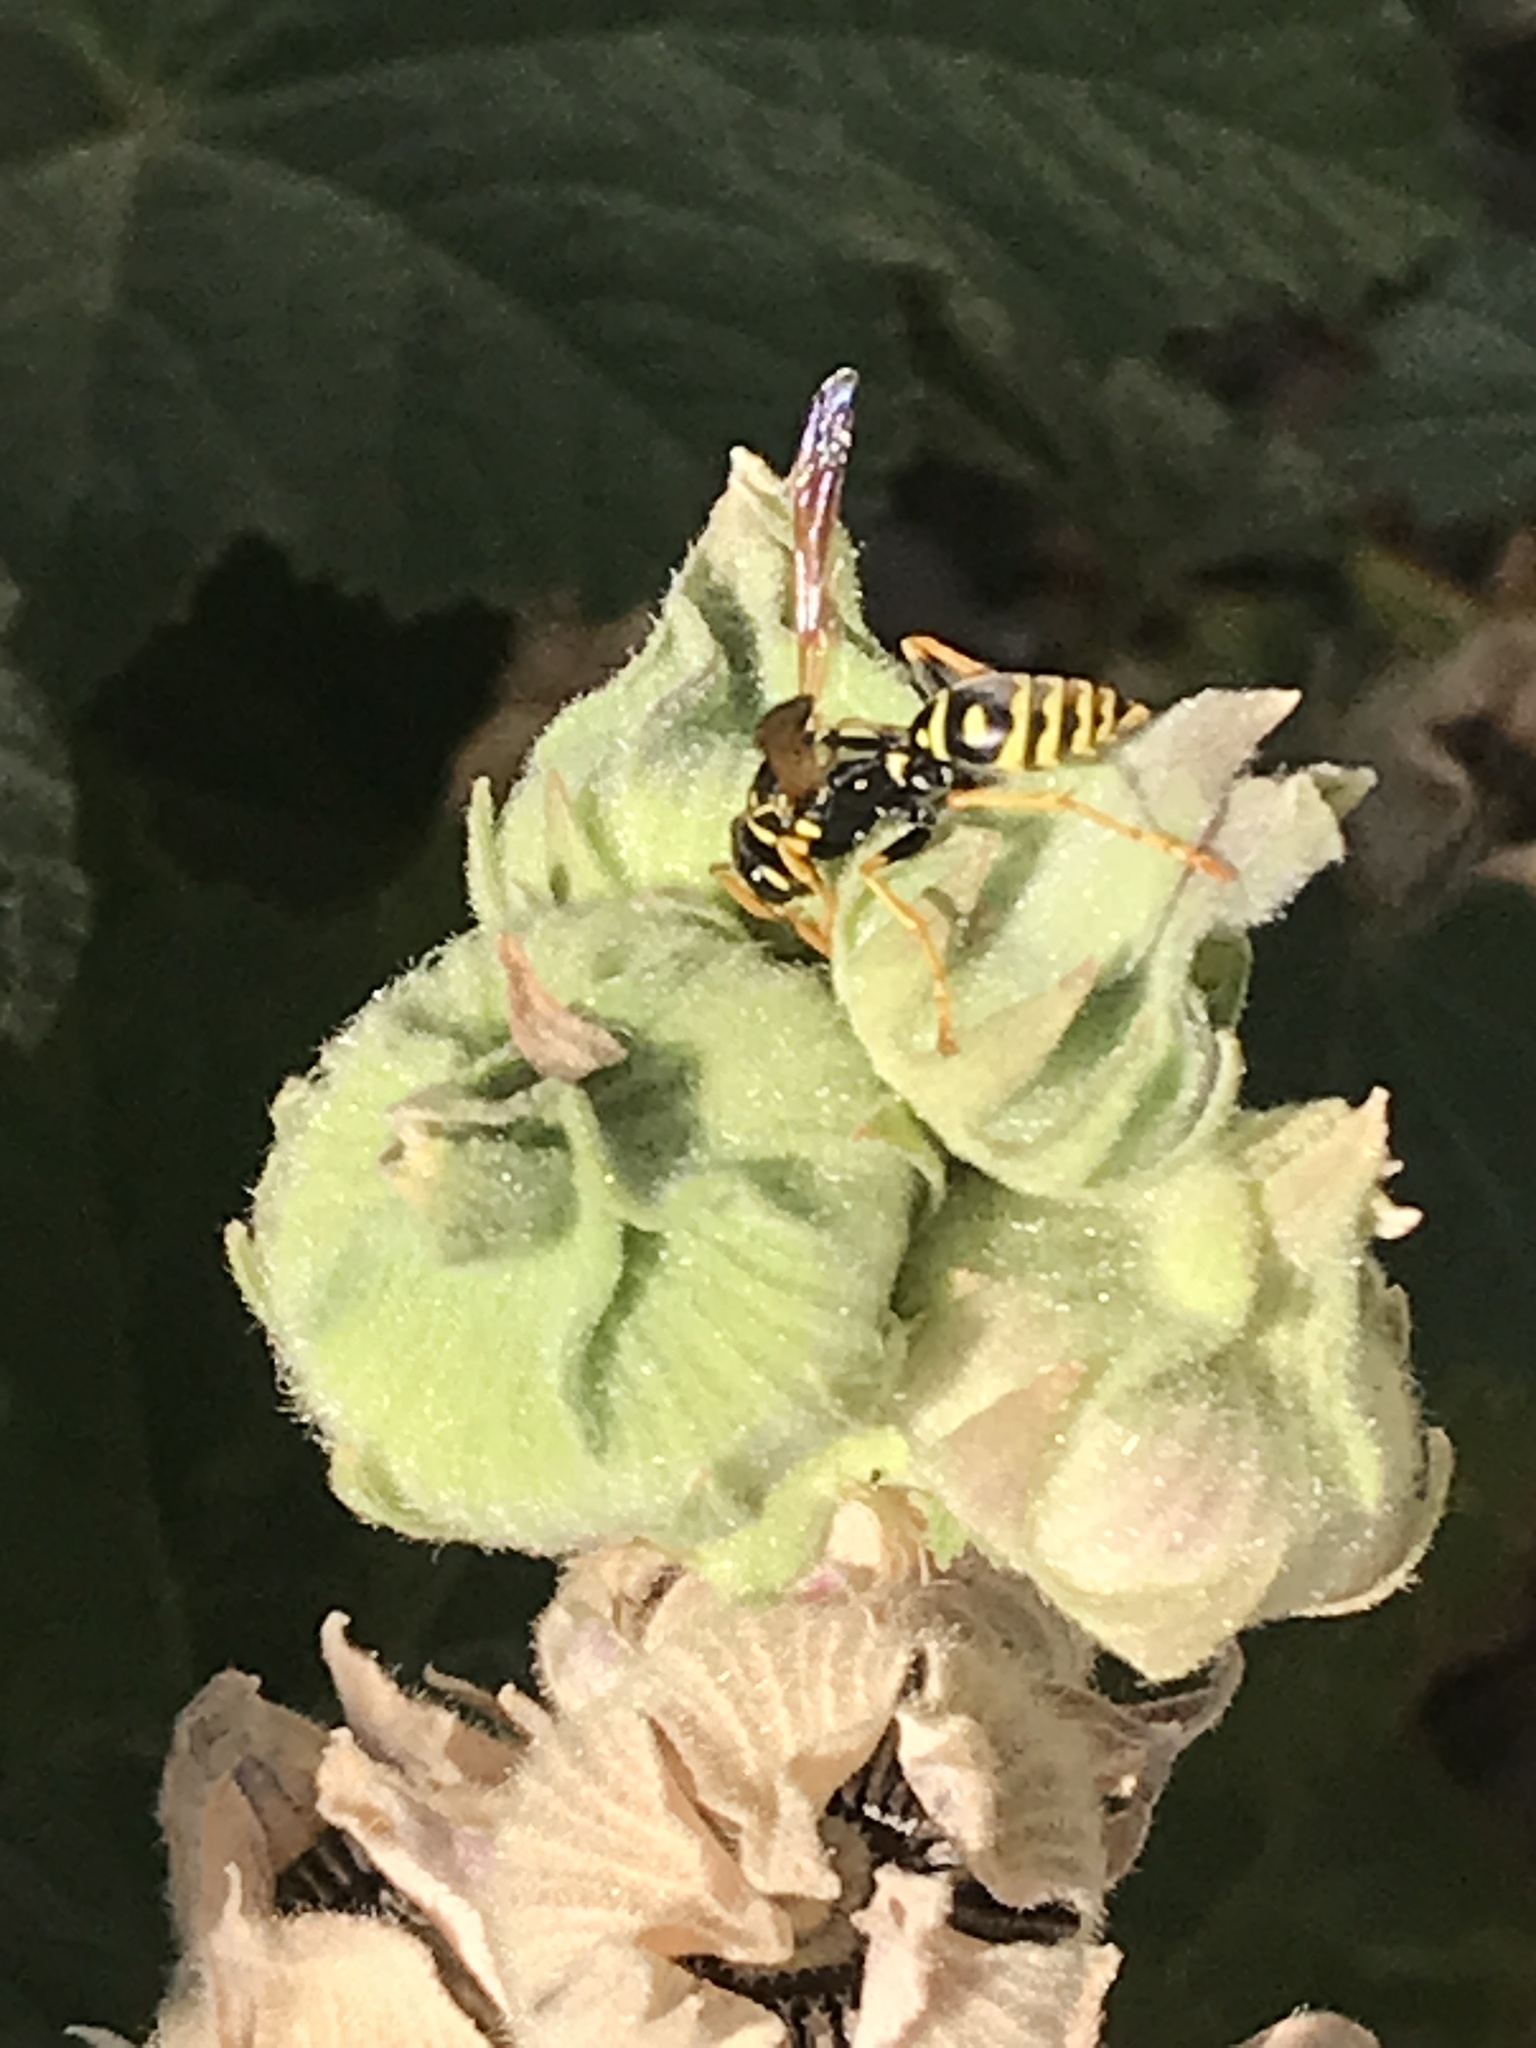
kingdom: Animalia
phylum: Arthropoda
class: Insecta
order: Hymenoptera
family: Eumenidae
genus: Polistes
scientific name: Polistes dominula
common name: Paper wasp
